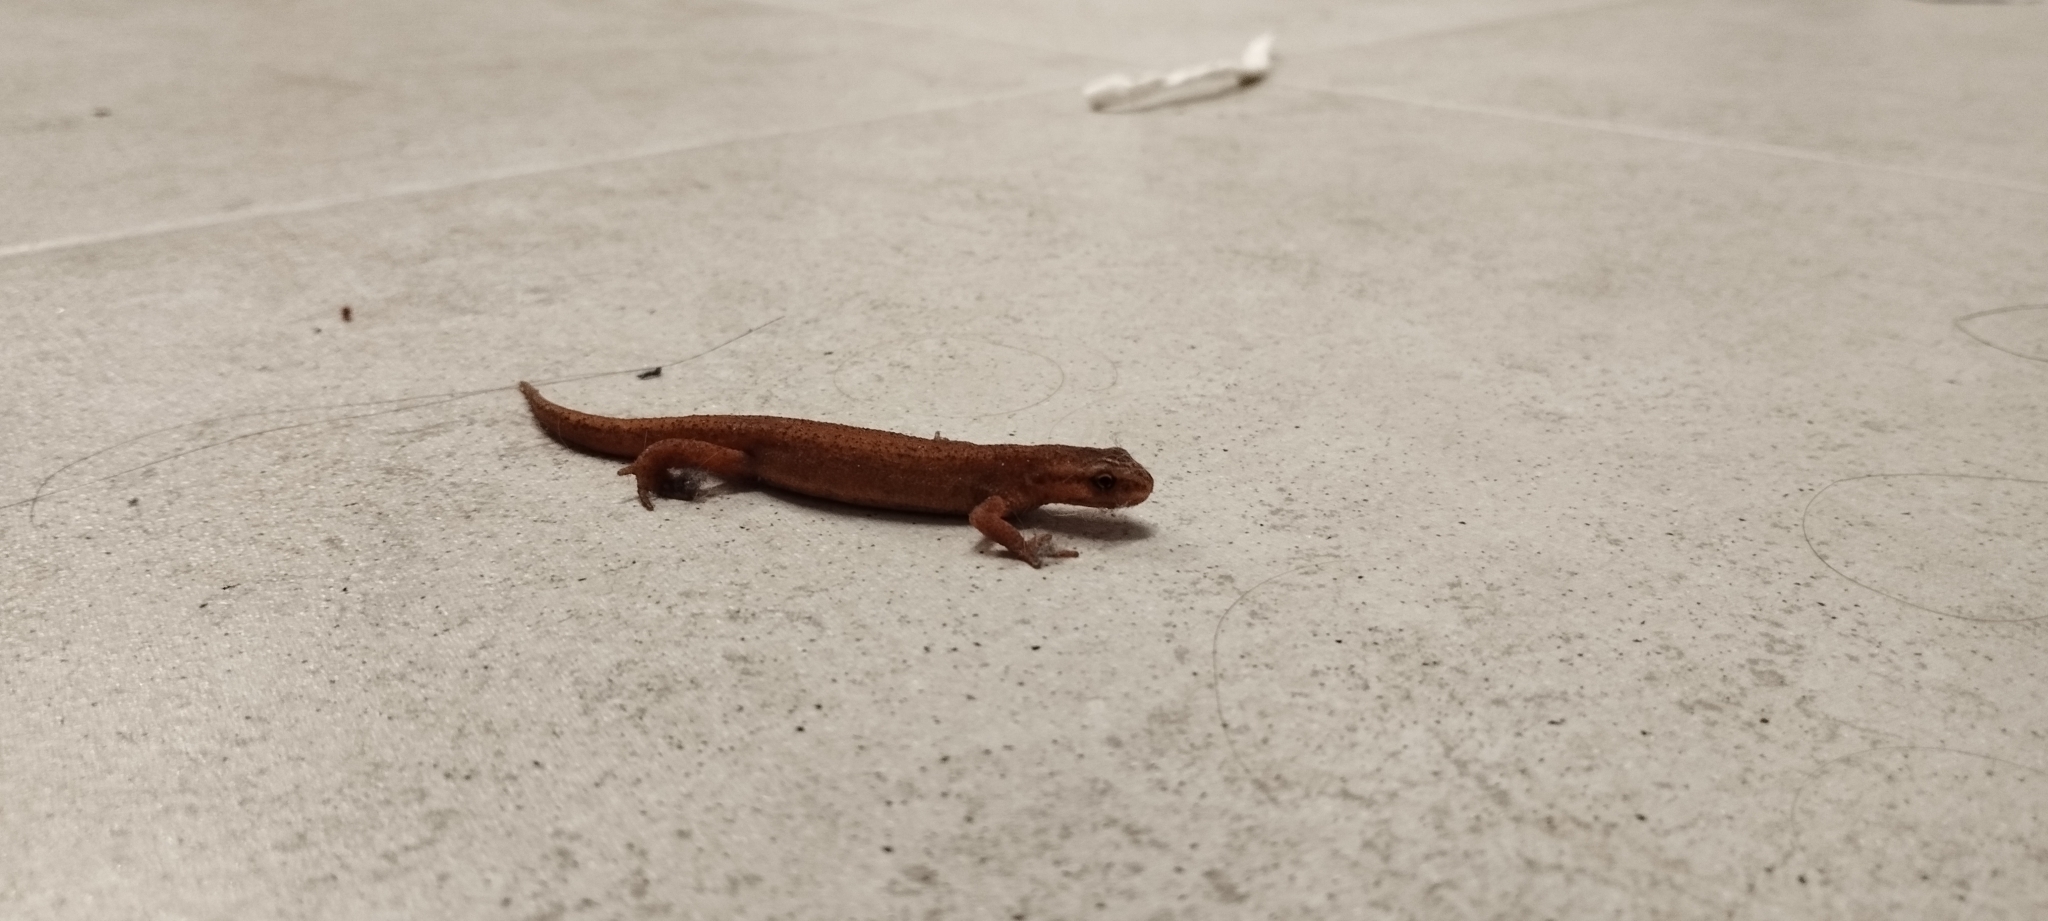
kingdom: Animalia
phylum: Chordata
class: Amphibia
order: Caudata
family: Salamandridae
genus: Lissotriton
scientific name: Lissotriton vulgaris
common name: Smooth newt
